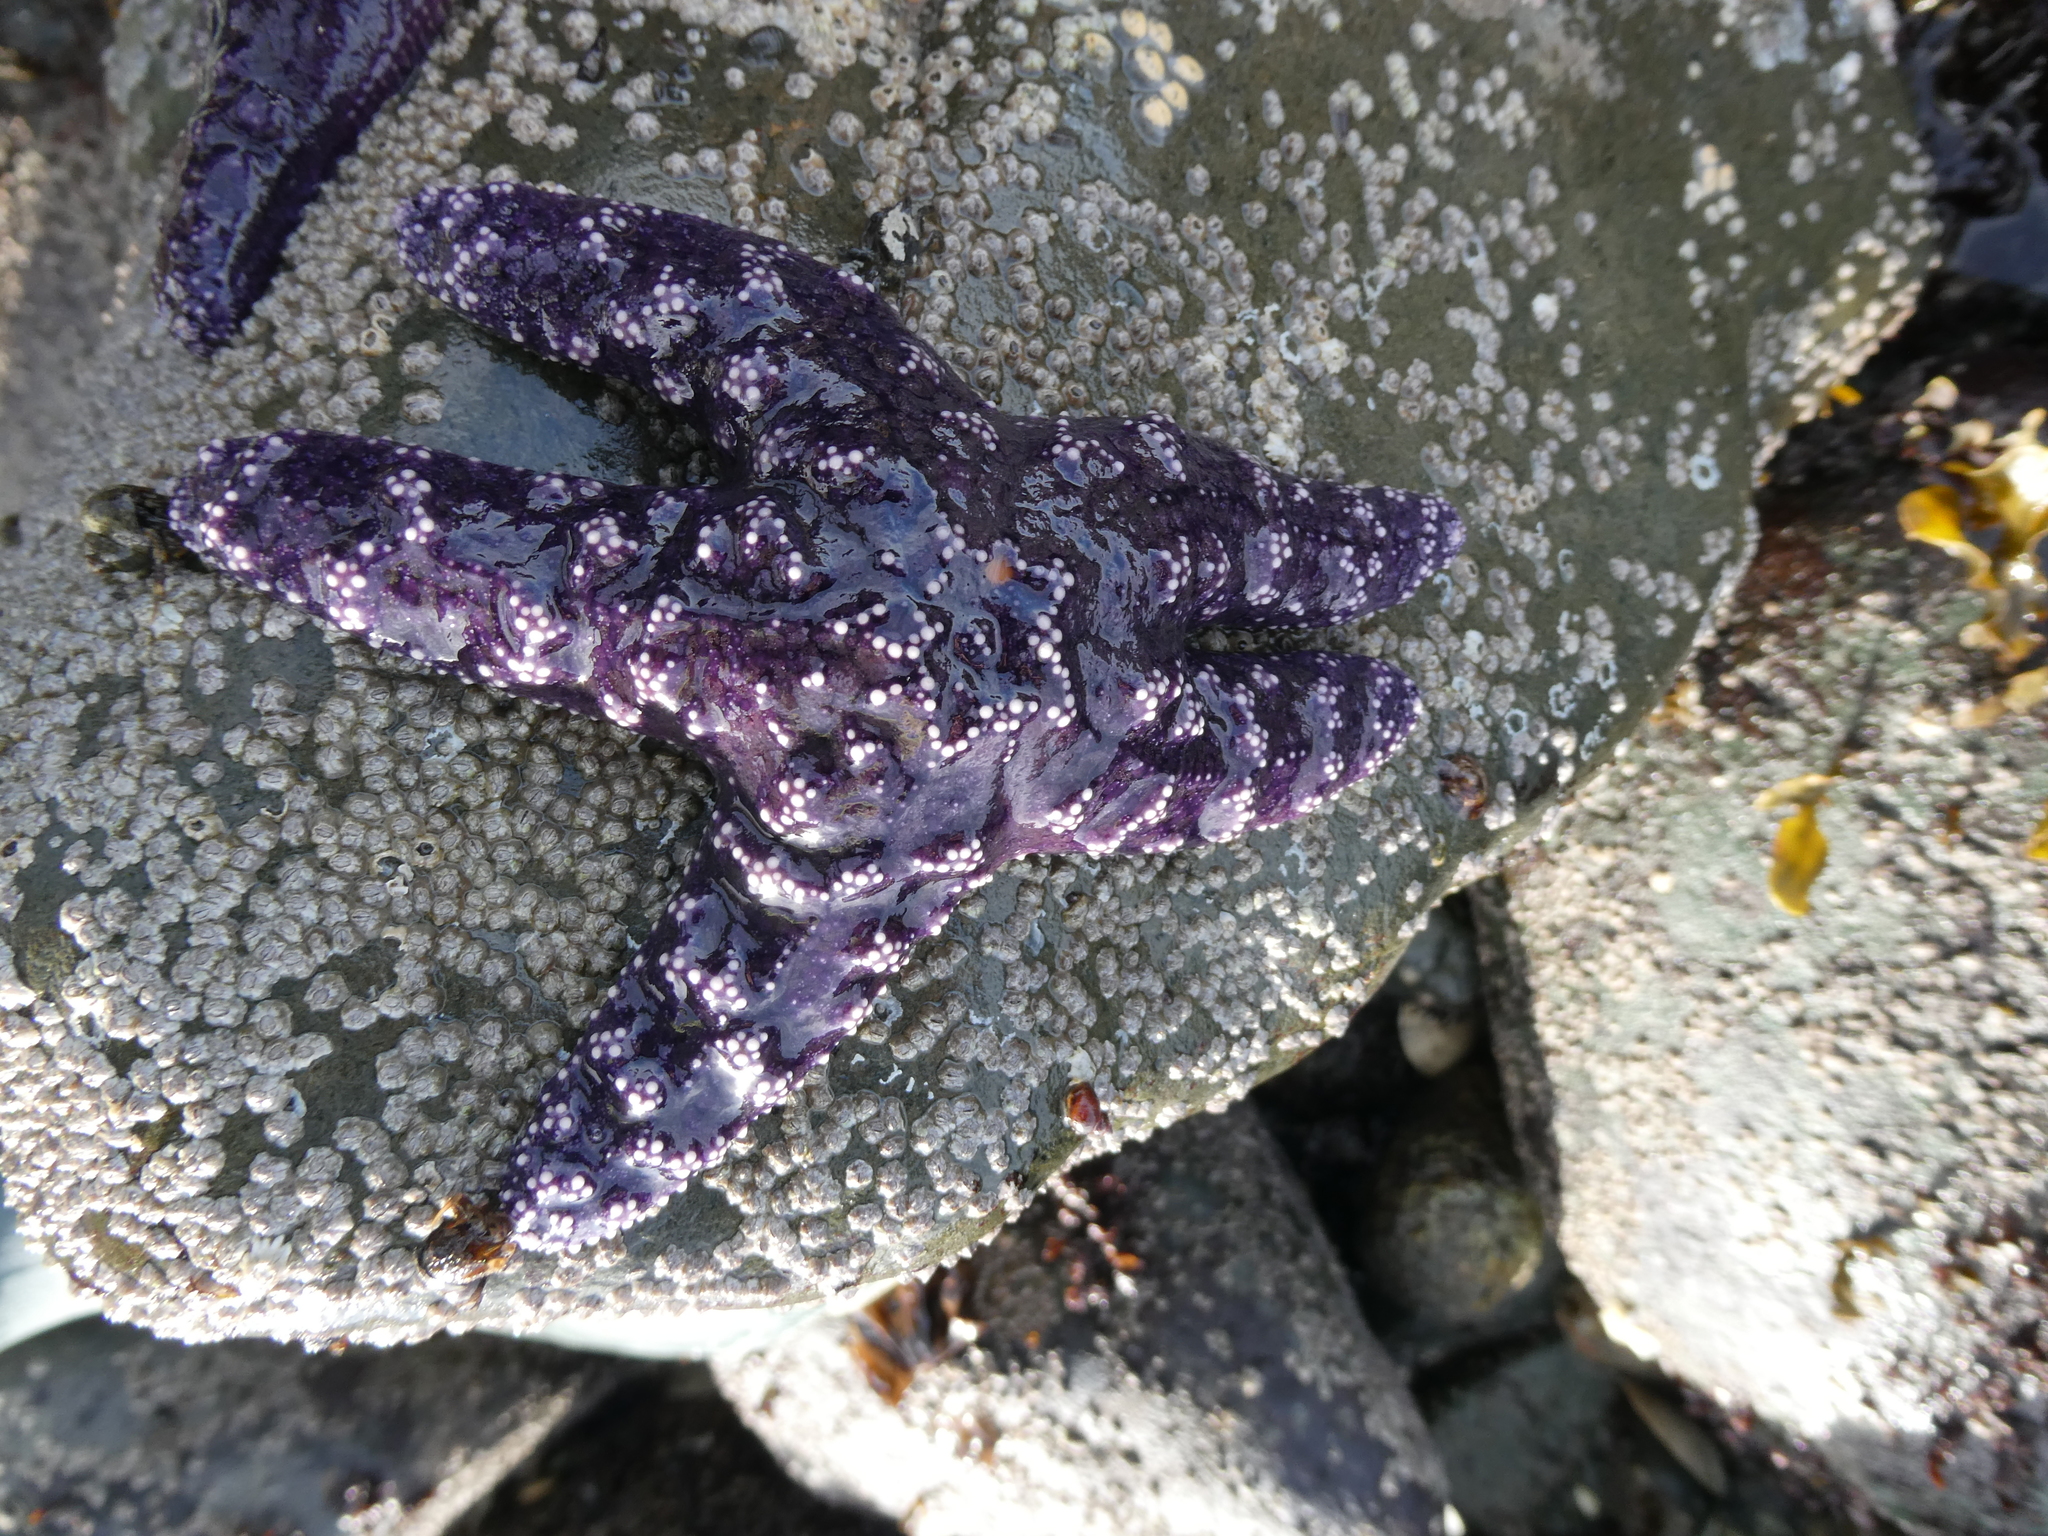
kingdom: Animalia
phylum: Echinodermata
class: Asteroidea
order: Forcipulatida
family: Asteriidae
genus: Pisaster
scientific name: Pisaster ochraceus
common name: Ochre stars
